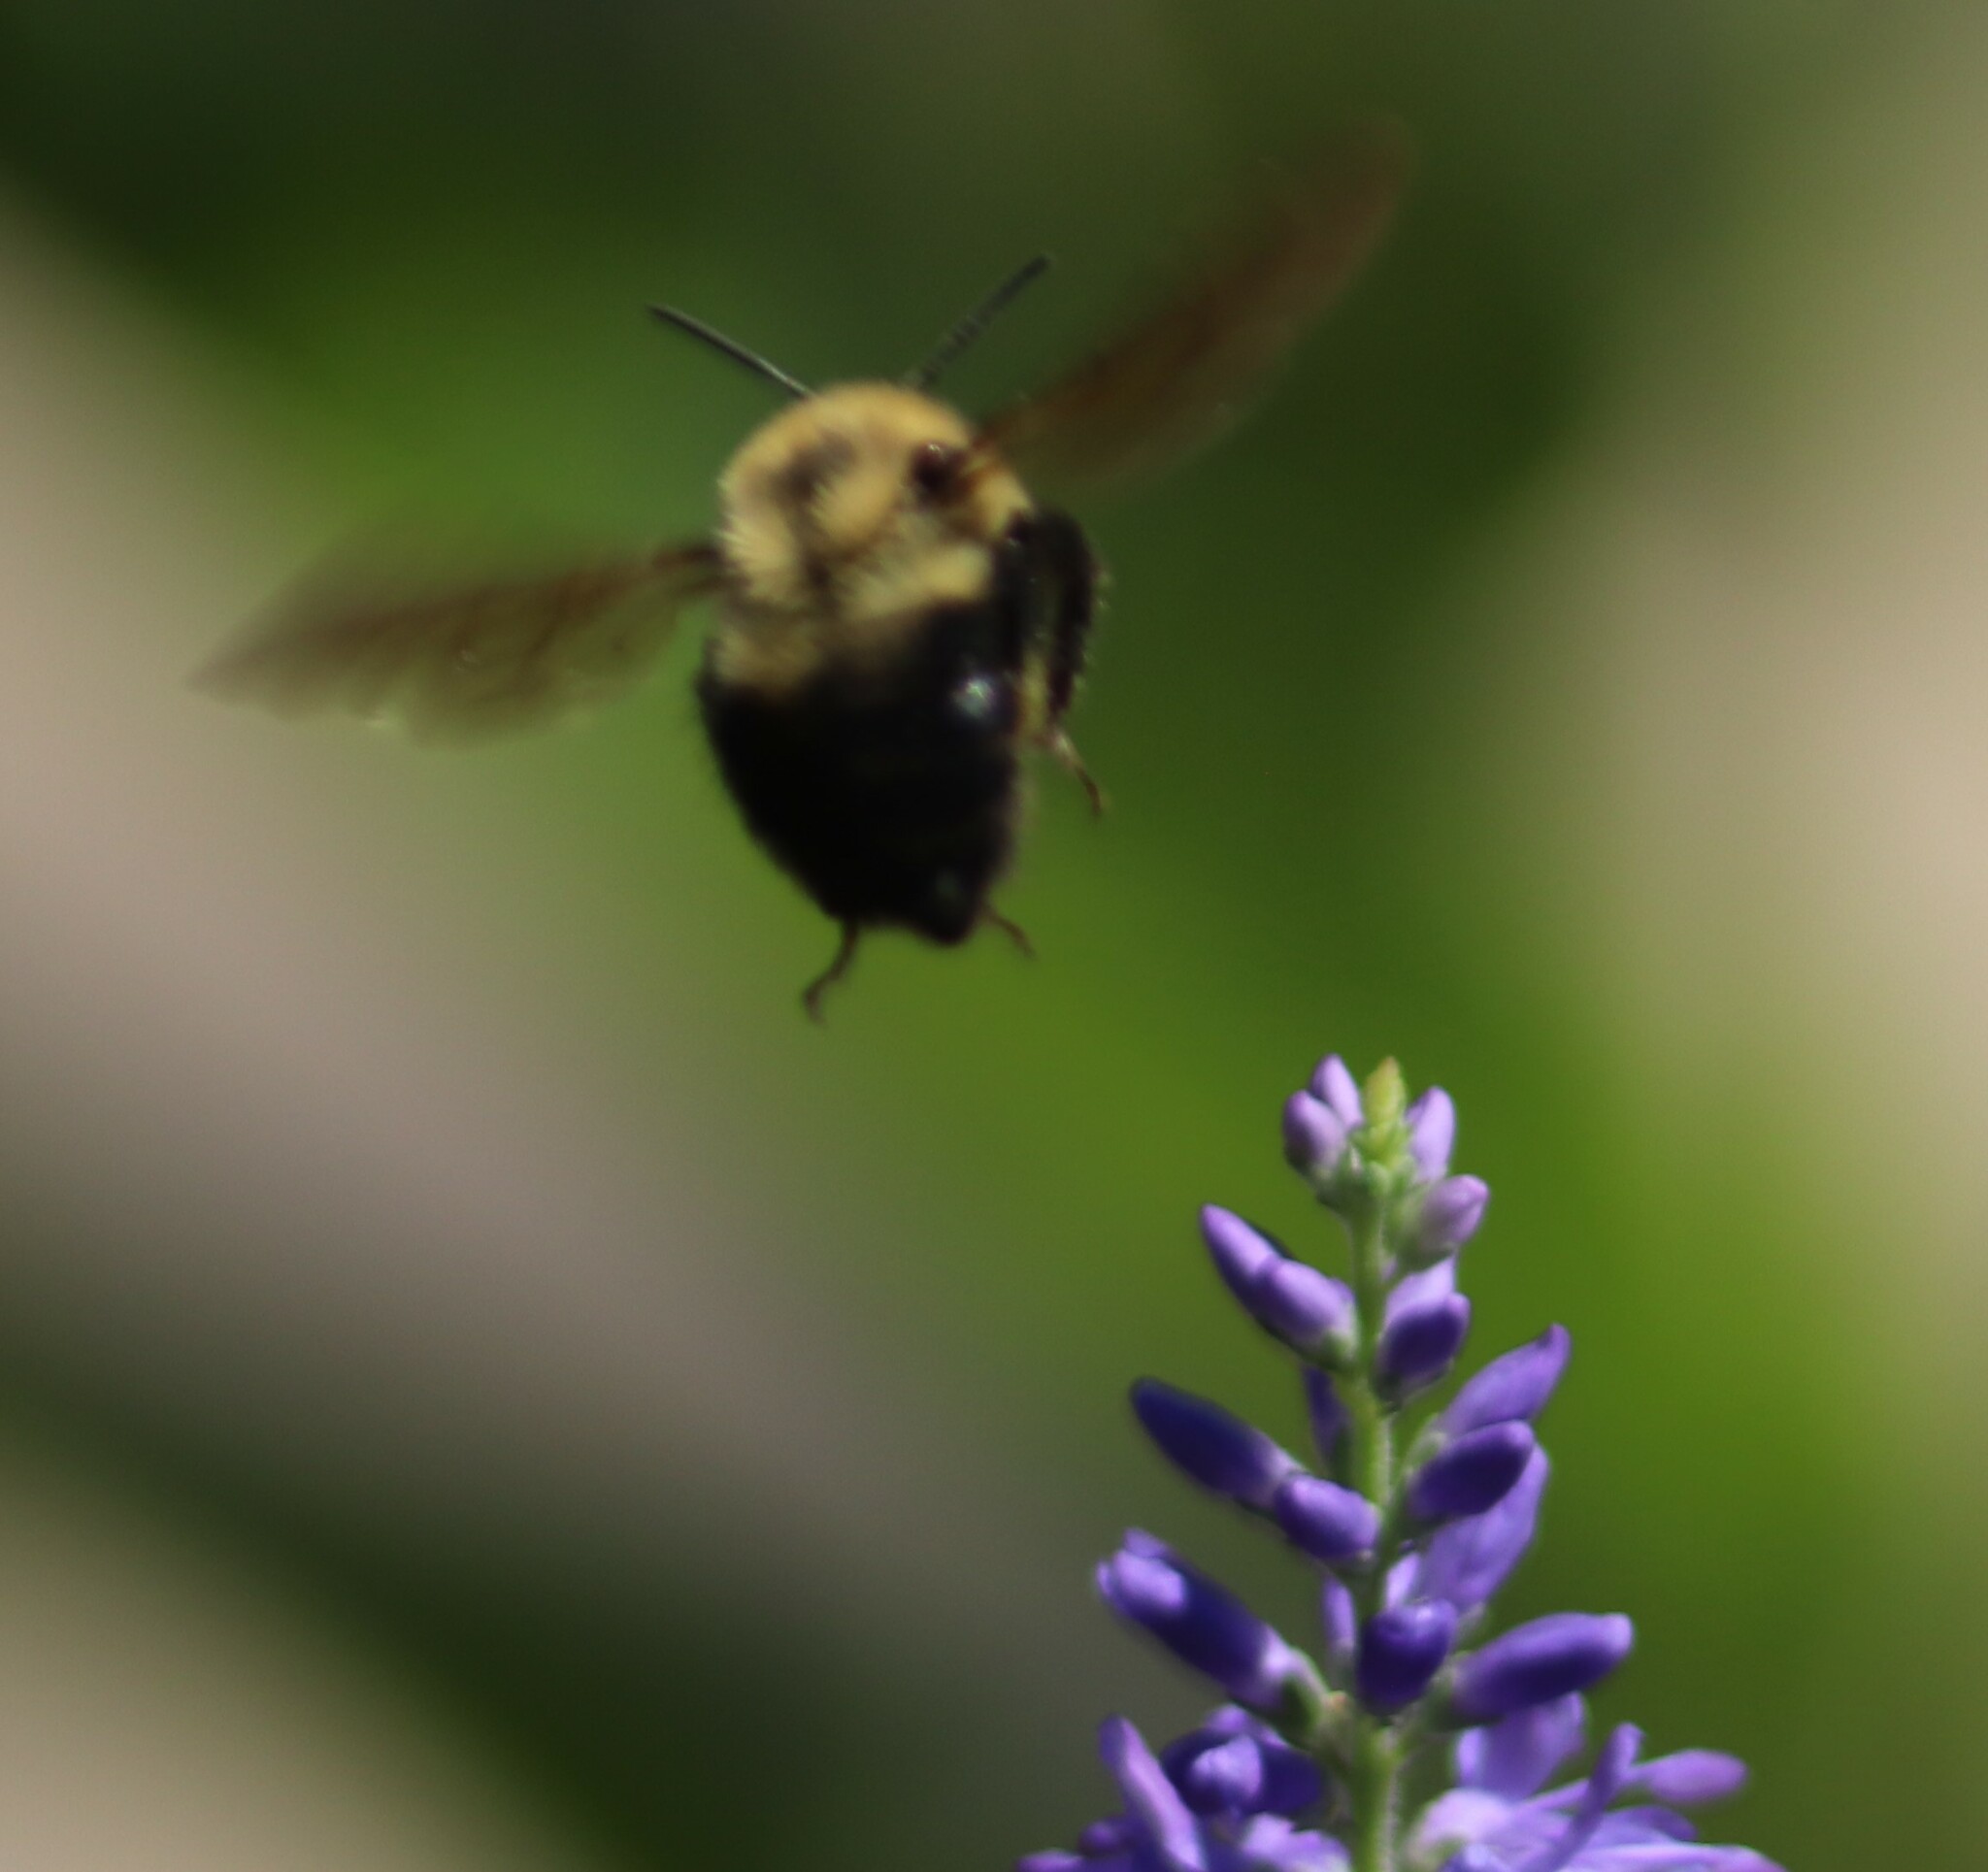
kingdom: Animalia
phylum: Arthropoda
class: Insecta
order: Hymenoptera
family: Apidae
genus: Bombus
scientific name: Bombus bimaculatus
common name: Two-spotted bumble bee
